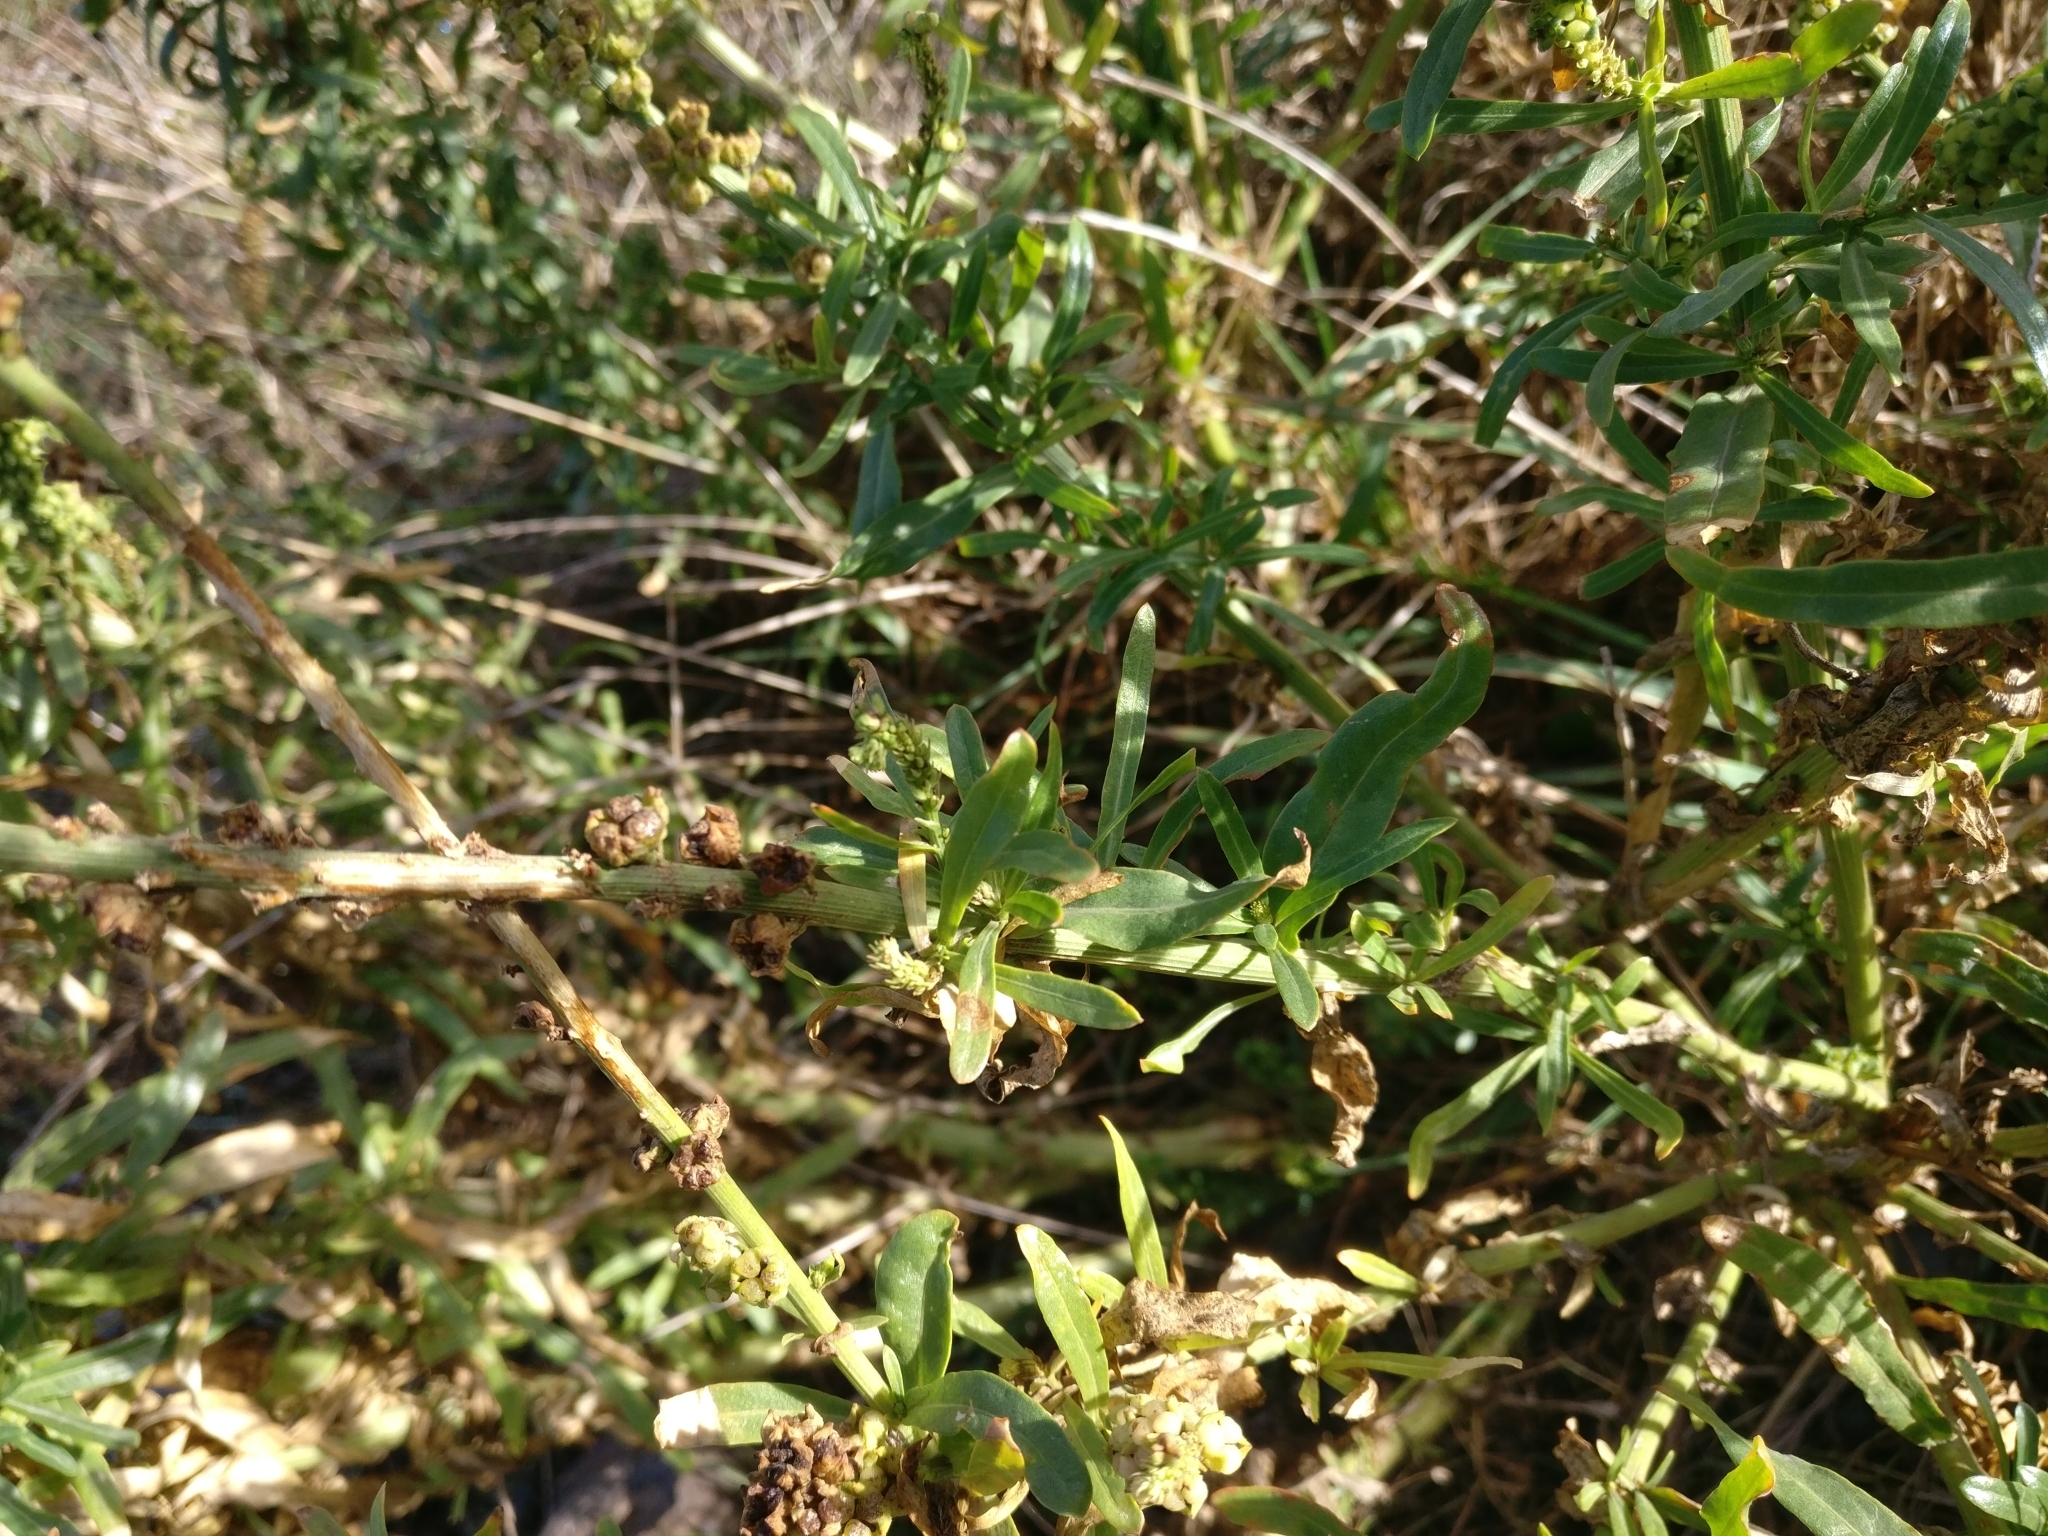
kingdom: Plantae
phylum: Tracheophyta
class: Magnoliopsida
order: Brassicales
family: Resedaceae
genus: Reseda
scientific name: Reseda luteola
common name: Weld
